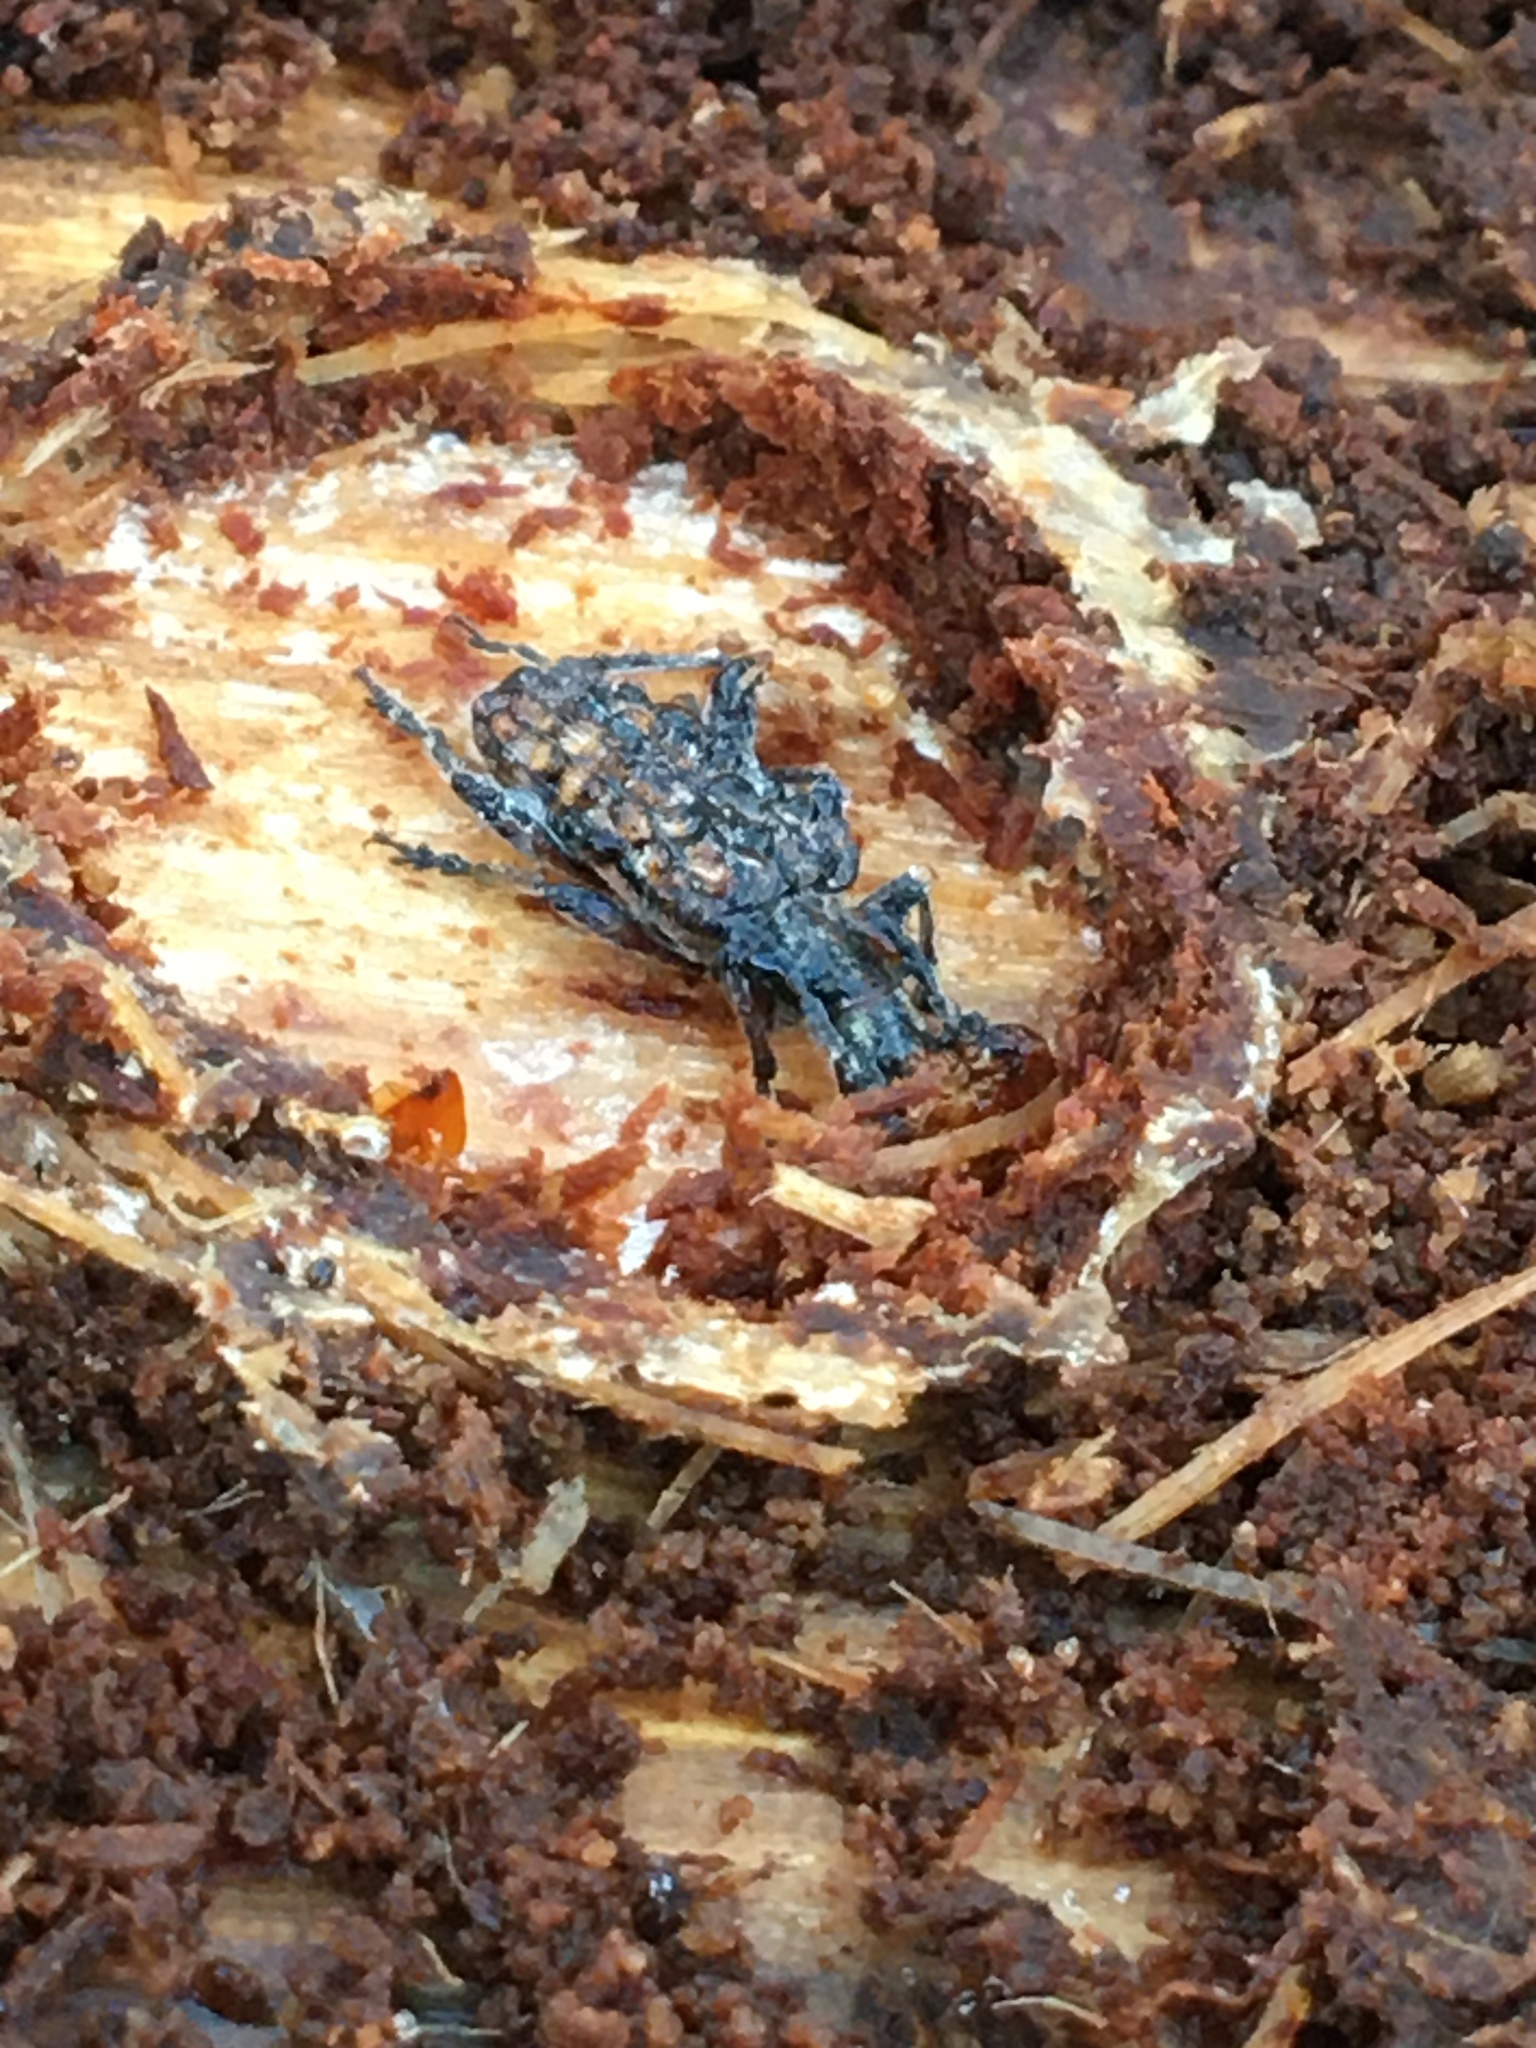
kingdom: Animalia
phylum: Arthropoda
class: Insecta
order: Coleoptera
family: Cerambycidae
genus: Rhagium
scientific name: Rhagium inquisitor
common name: Ribbed pine borer
